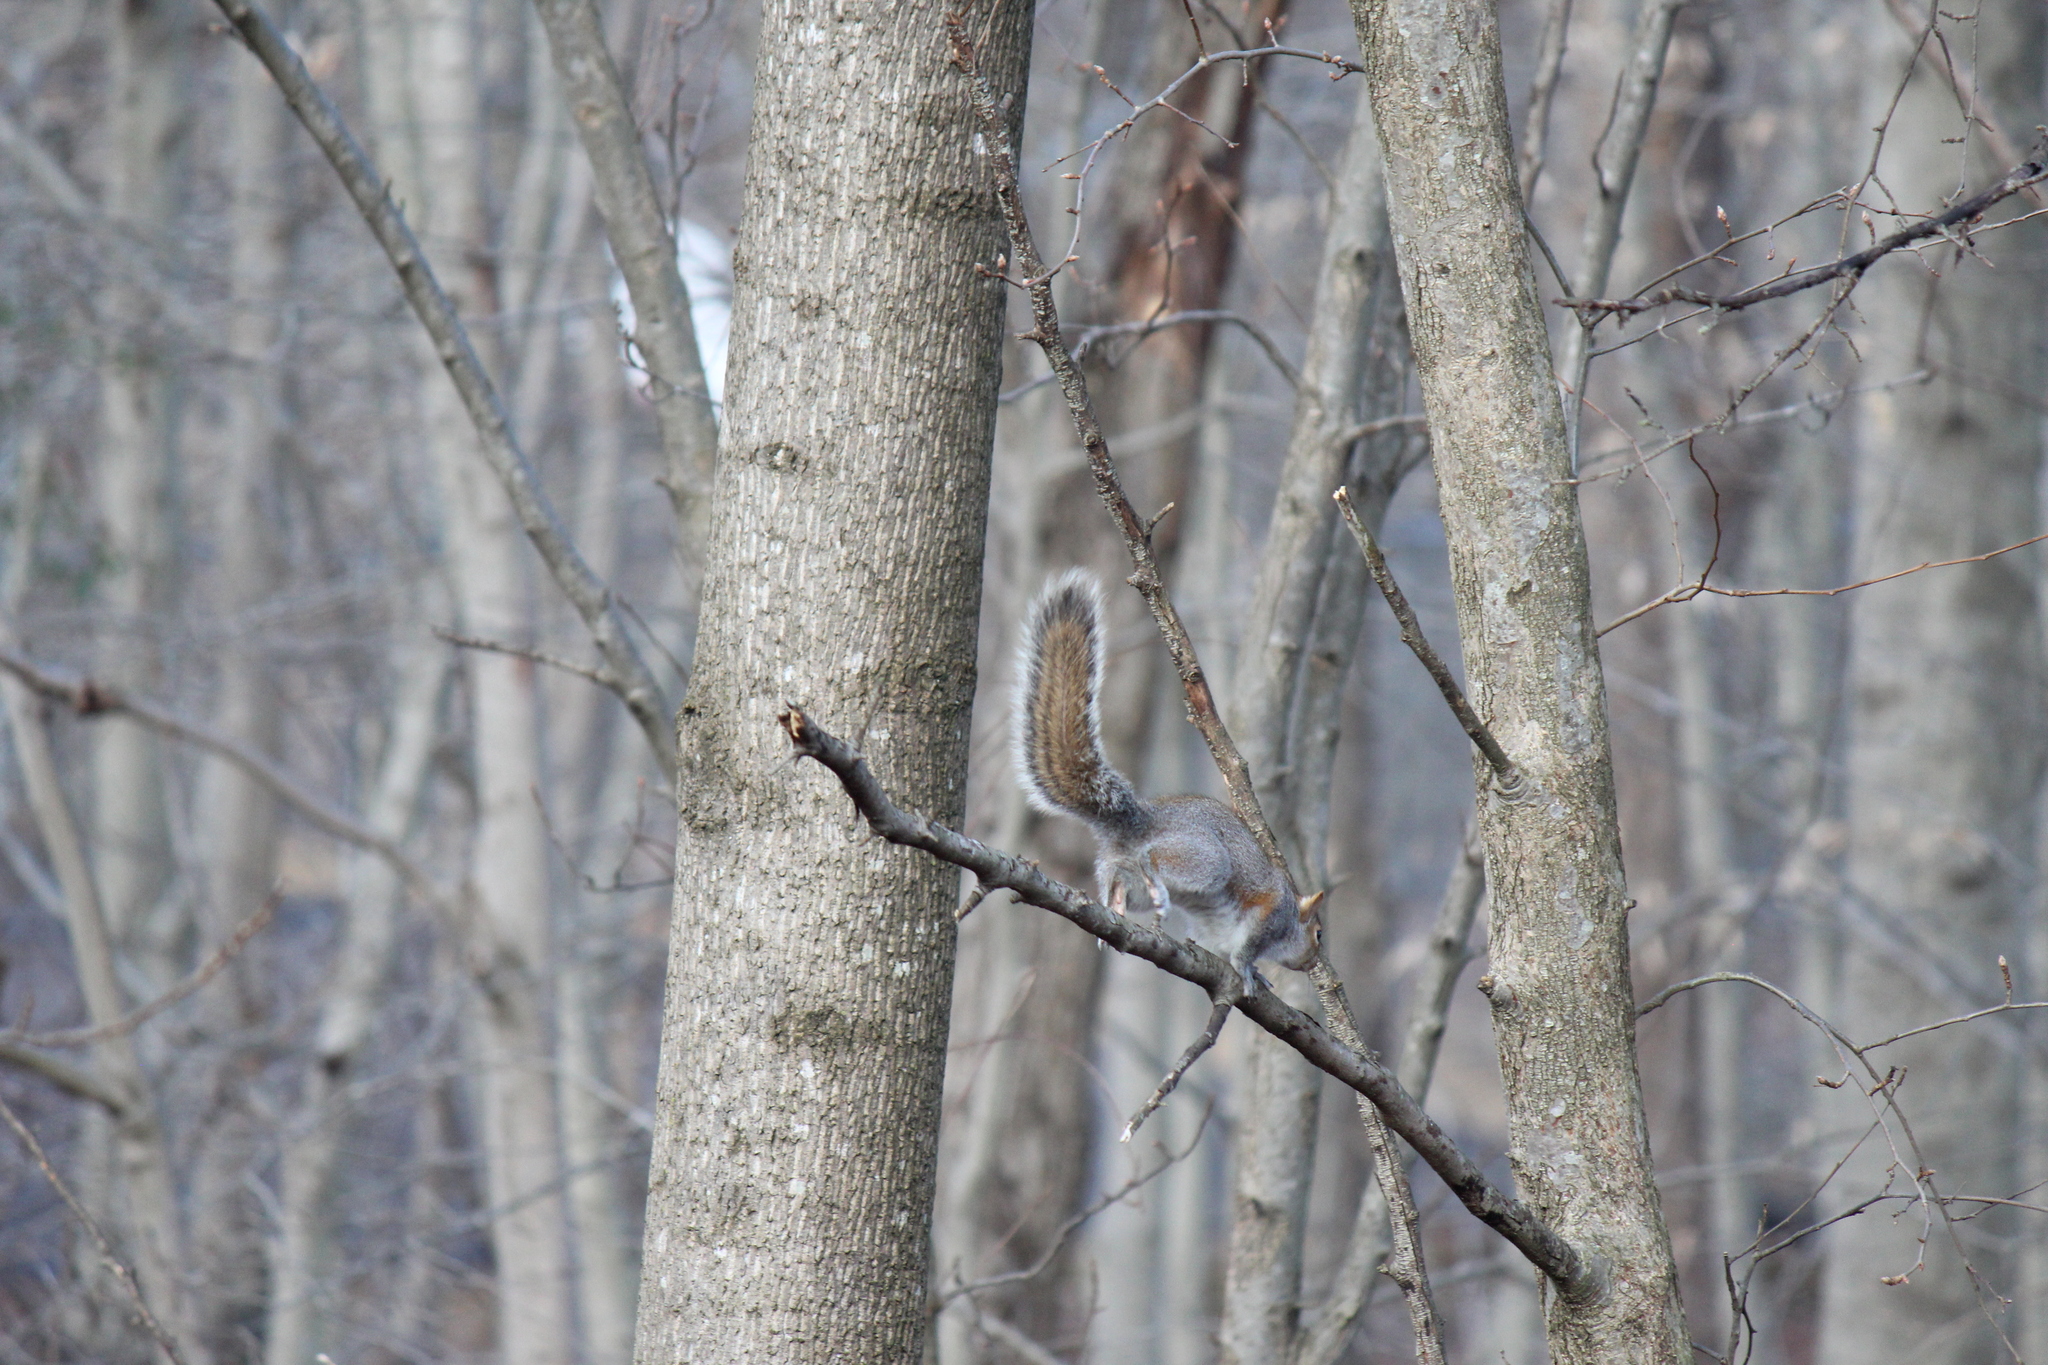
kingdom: Animalia
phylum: Chordata
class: Mammalia
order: Rodentia
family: Sciuridae
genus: Sciurus
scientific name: Sciurus carolinensis
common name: Eastern gray squirrel
